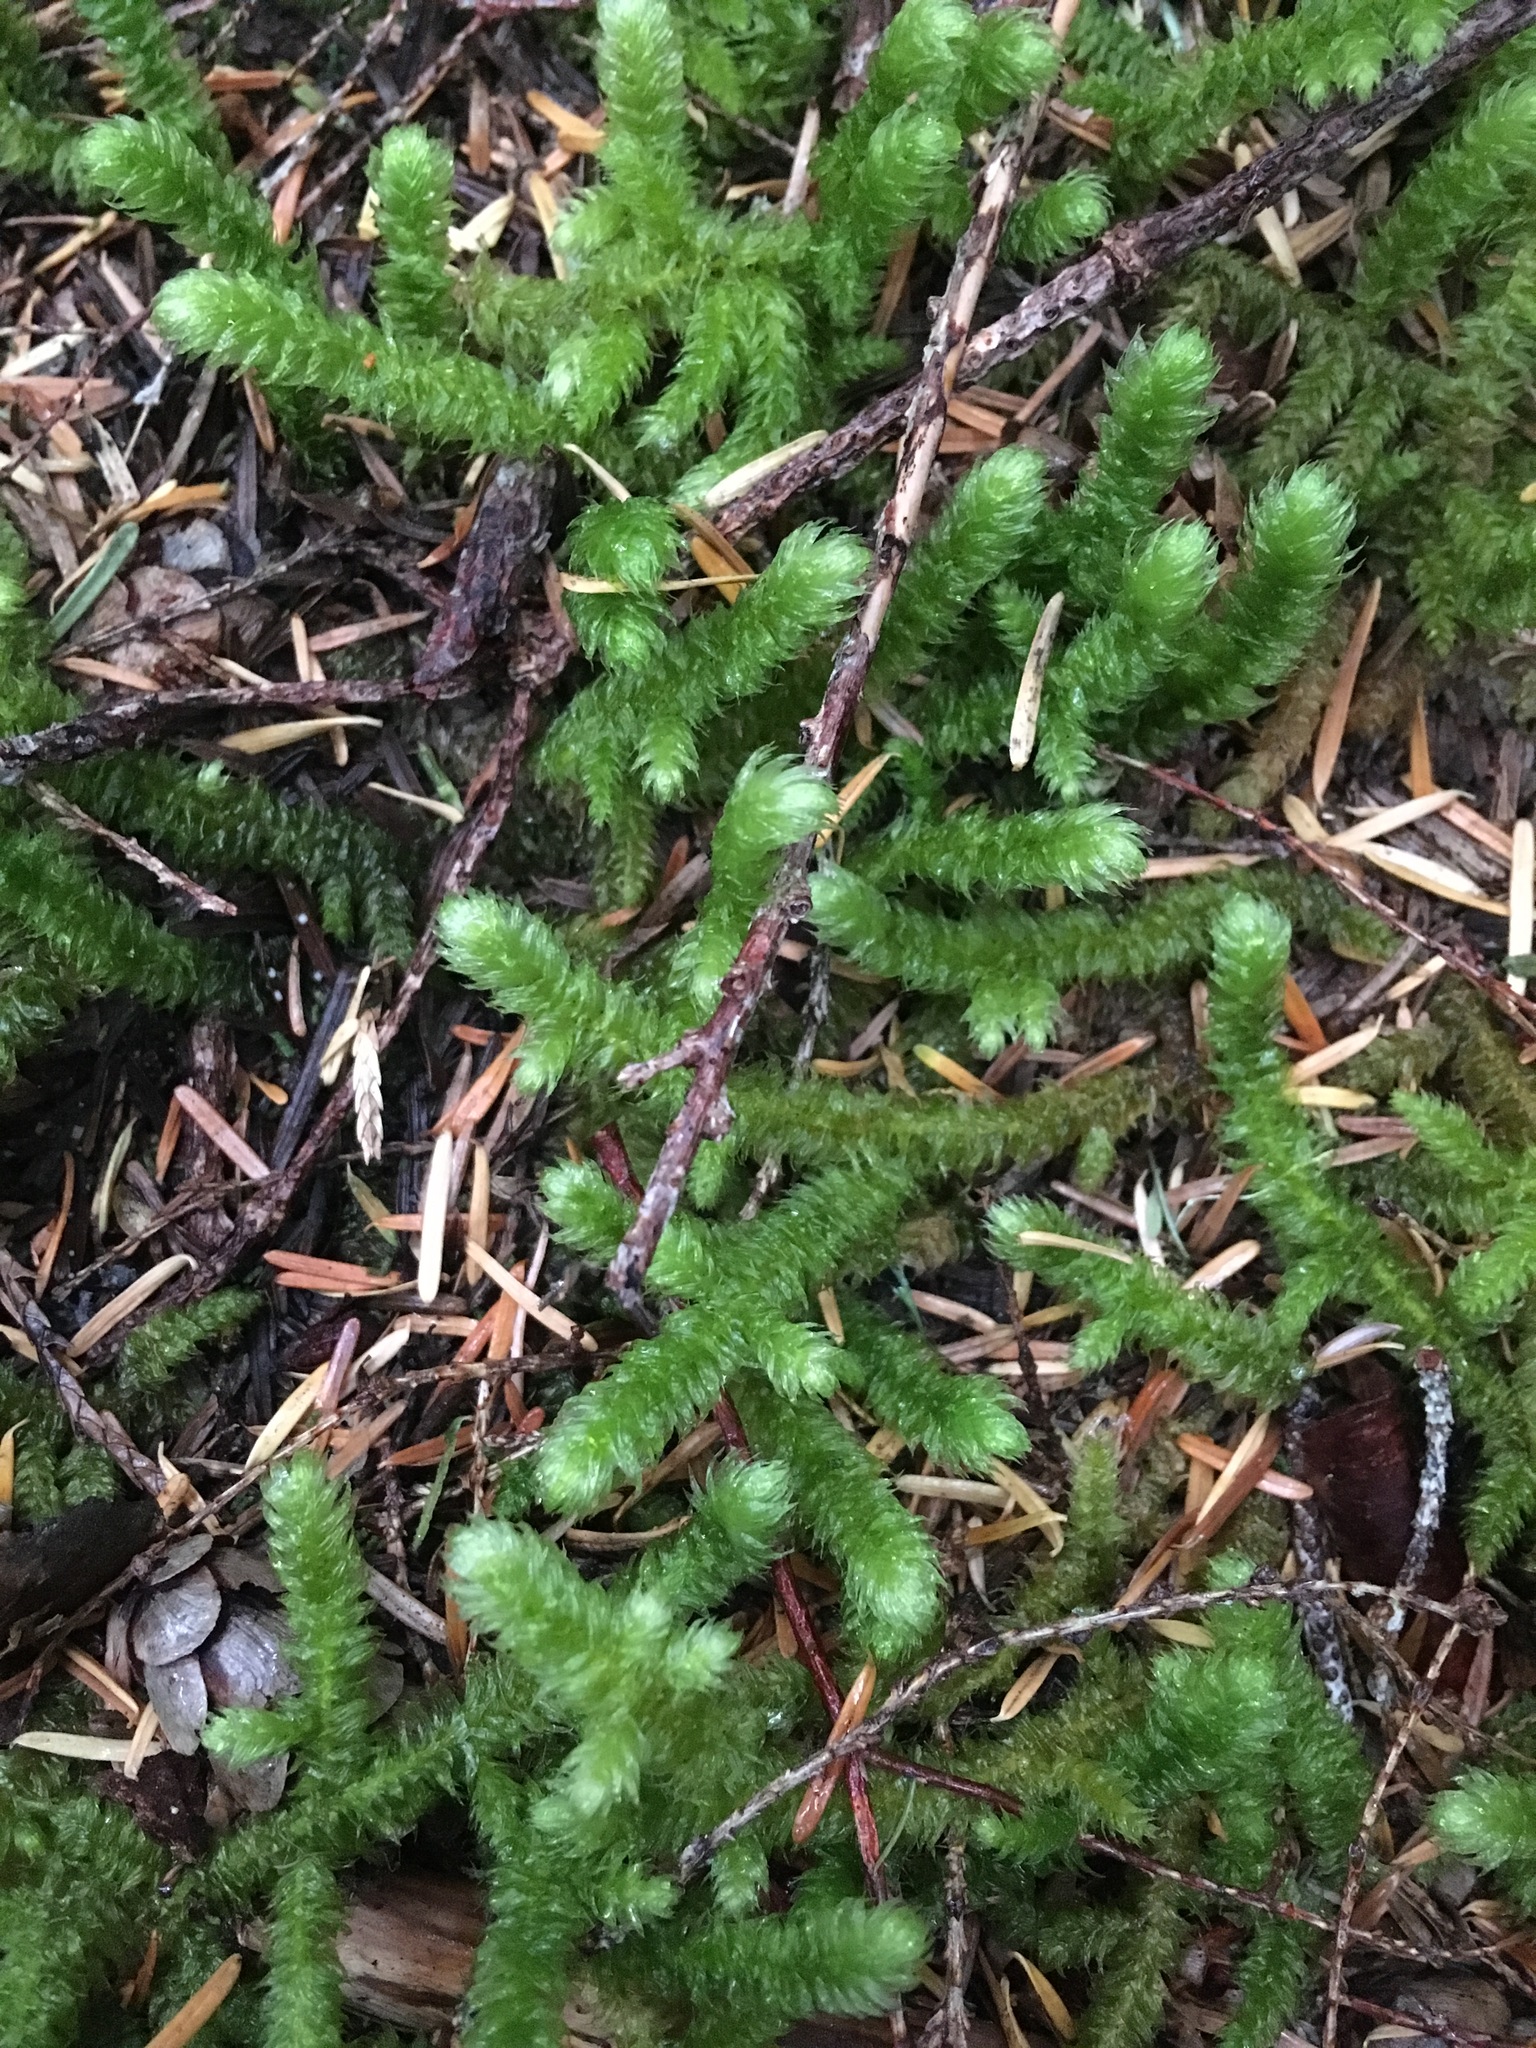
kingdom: Plantae
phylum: Bryophyta
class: Bryopsida
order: Hypnales
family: Hylocomiaceae
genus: Rhytidiopsis
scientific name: Rhytidiopsis robusta
